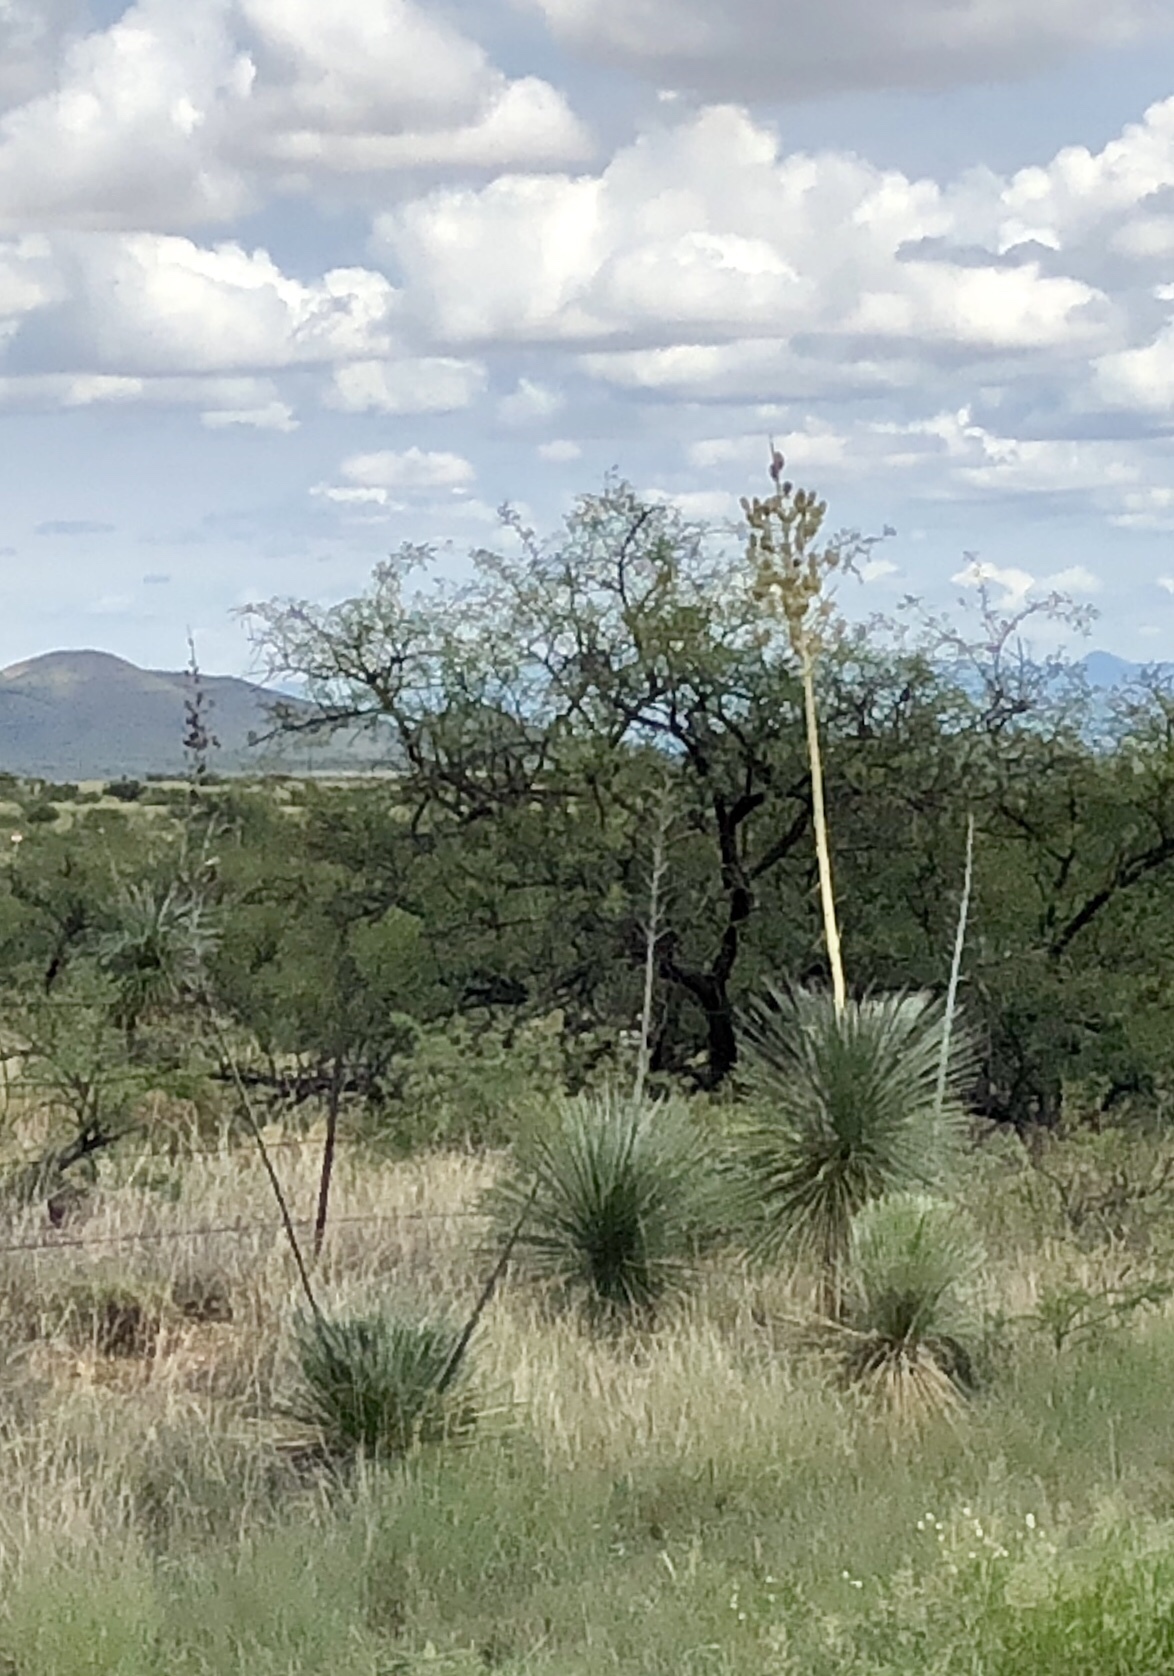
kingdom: Plantae
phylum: Tracheophyta
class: Liliopsida
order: Asparagales
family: Asparagaceae
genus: Yucca
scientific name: Yucca elata
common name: Palmella
